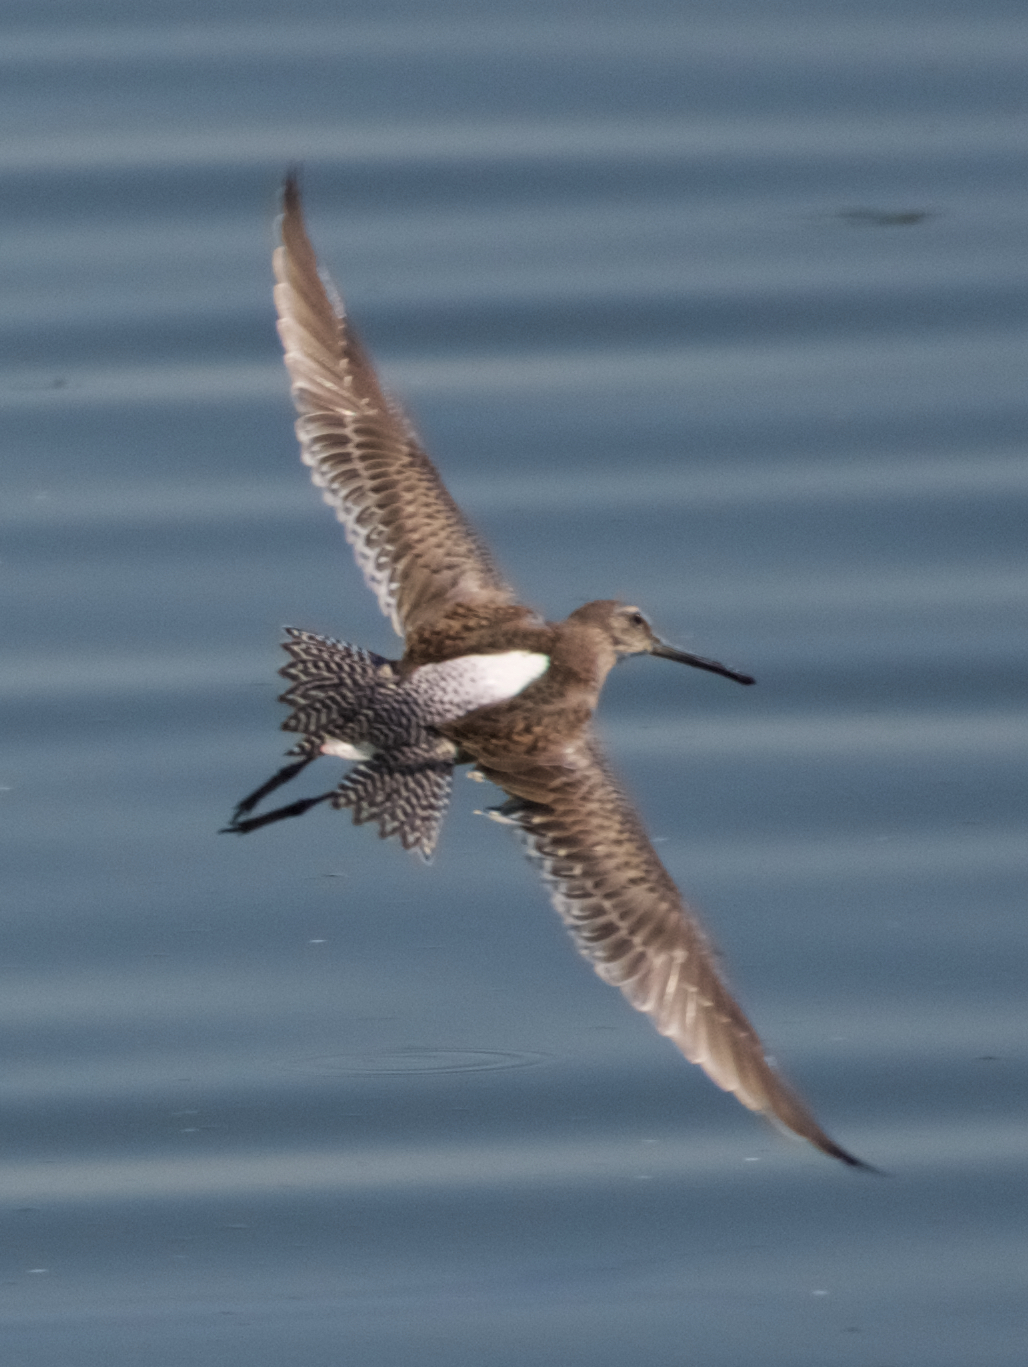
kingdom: Animalia
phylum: Chordata
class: Aves
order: Charadriiformes
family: Scolopacidae
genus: Limnodromus
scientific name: Limnodromus scolopaceus
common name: Long-billed dowitcher
